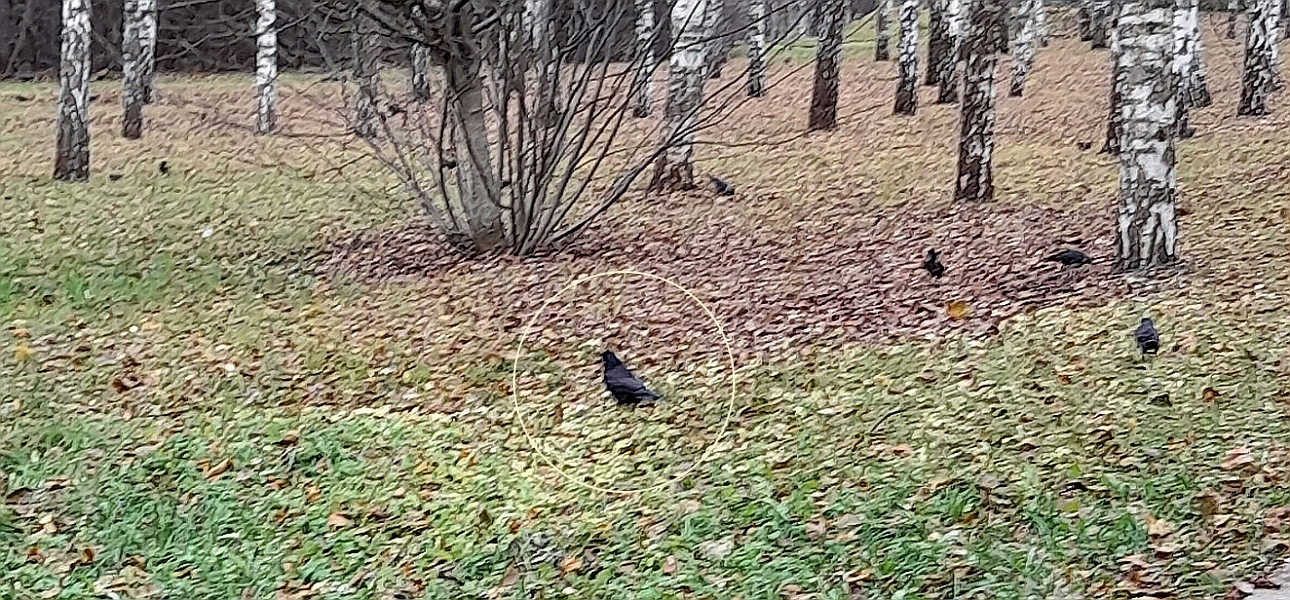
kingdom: Animalia
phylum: Chordata
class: Aves
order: Passeriformes
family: Corvidae
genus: Corvus
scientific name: Corvus frugilegus
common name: Rook
